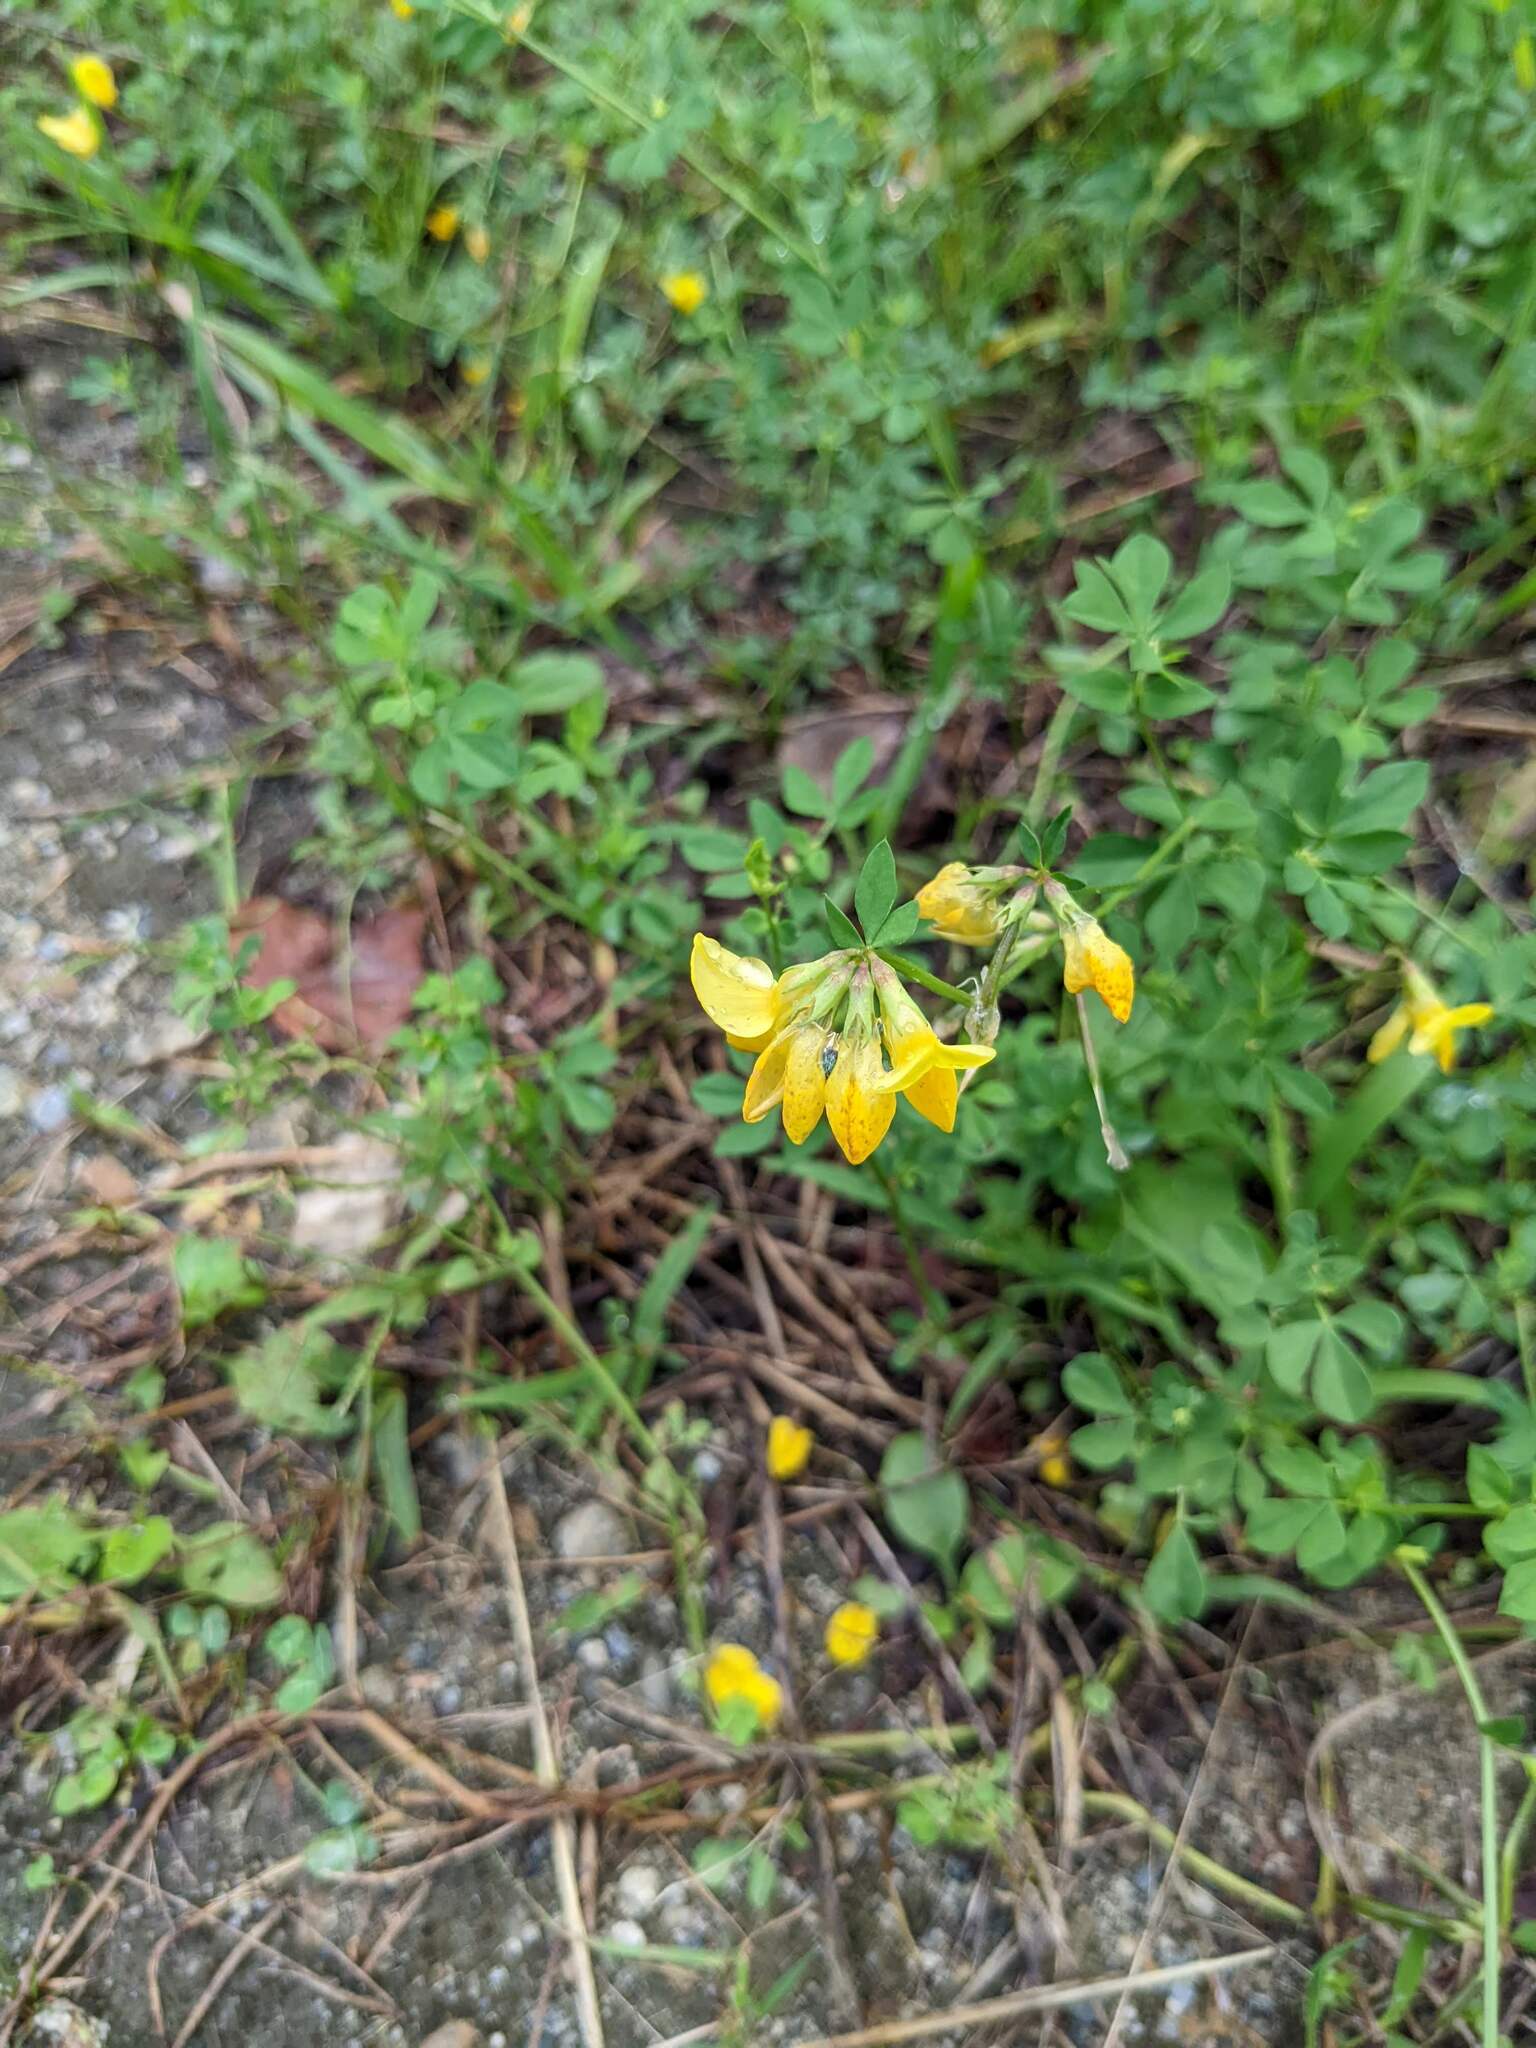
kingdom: Plantae
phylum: Tracheophyta
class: Magnoliopsida
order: Fabales
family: Fabaceae
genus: Lotus
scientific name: Lotus corniculatus
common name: Common bird's-foot-trefoil
